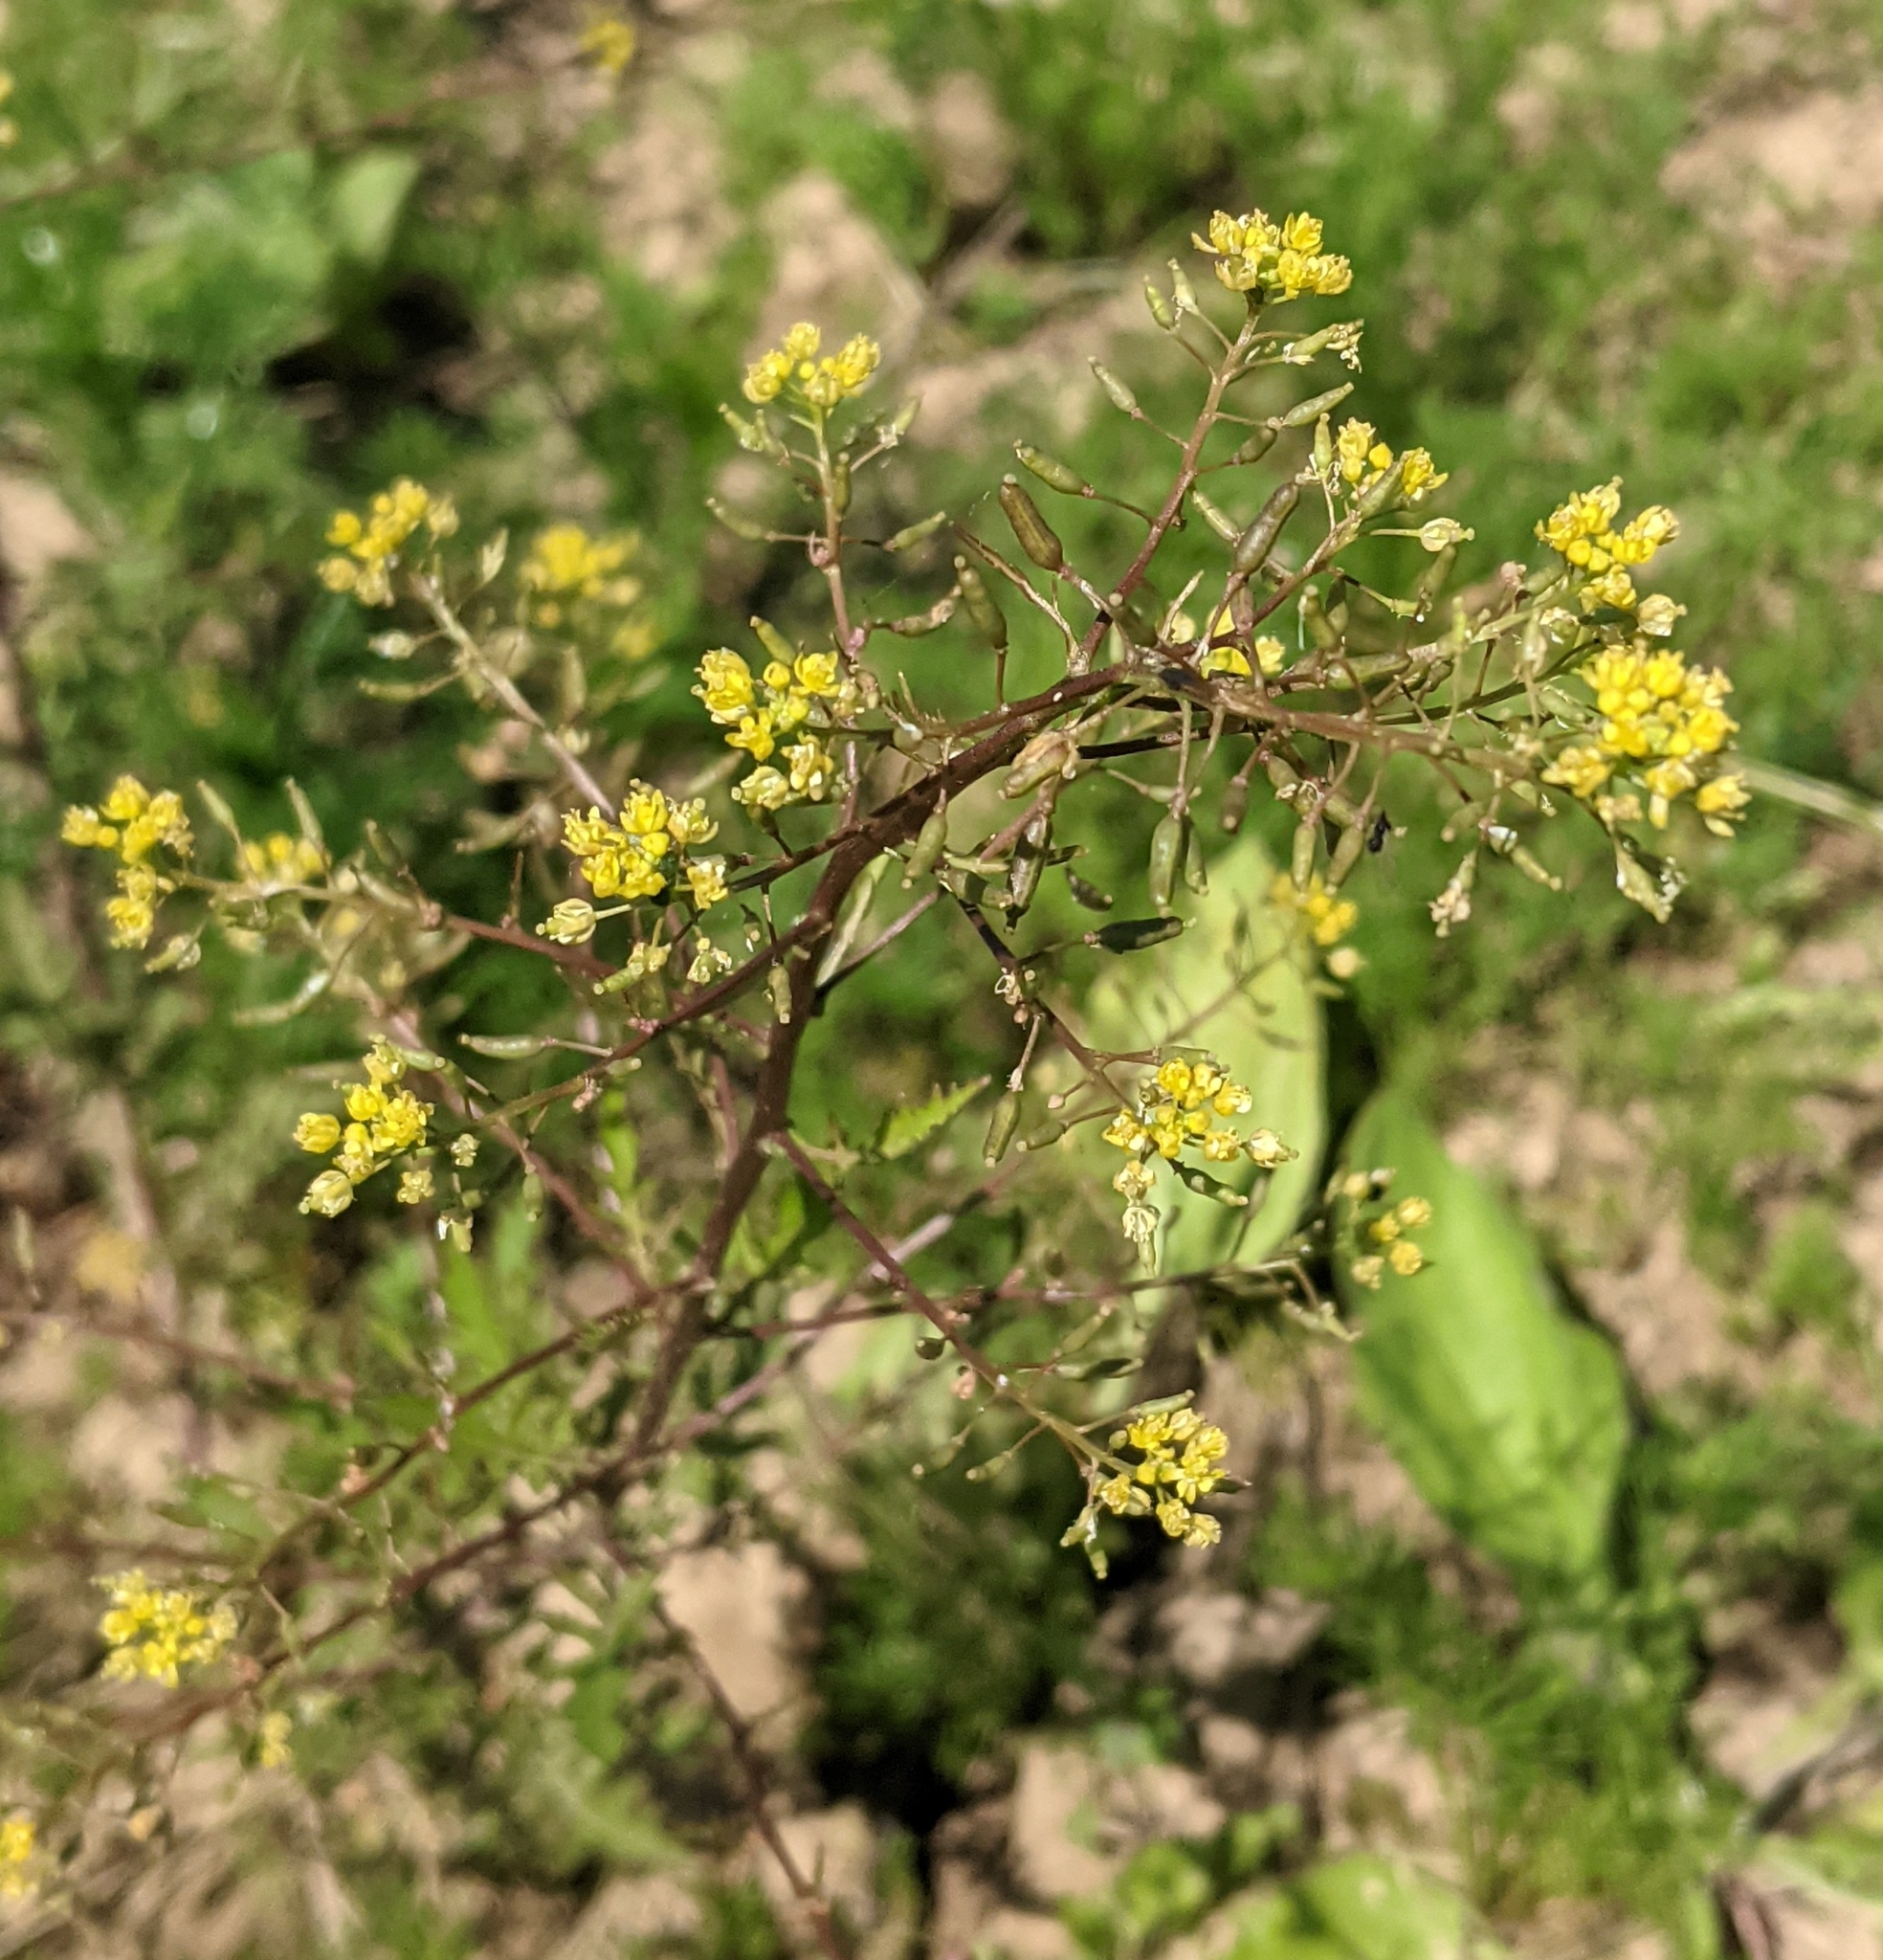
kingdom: Plantae
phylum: Tracheophyta
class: Magnoliopsida
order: Brassicales
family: Brassicaceae
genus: Rorippa
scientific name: Rorippa palustris
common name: Marsh yellow-cress
